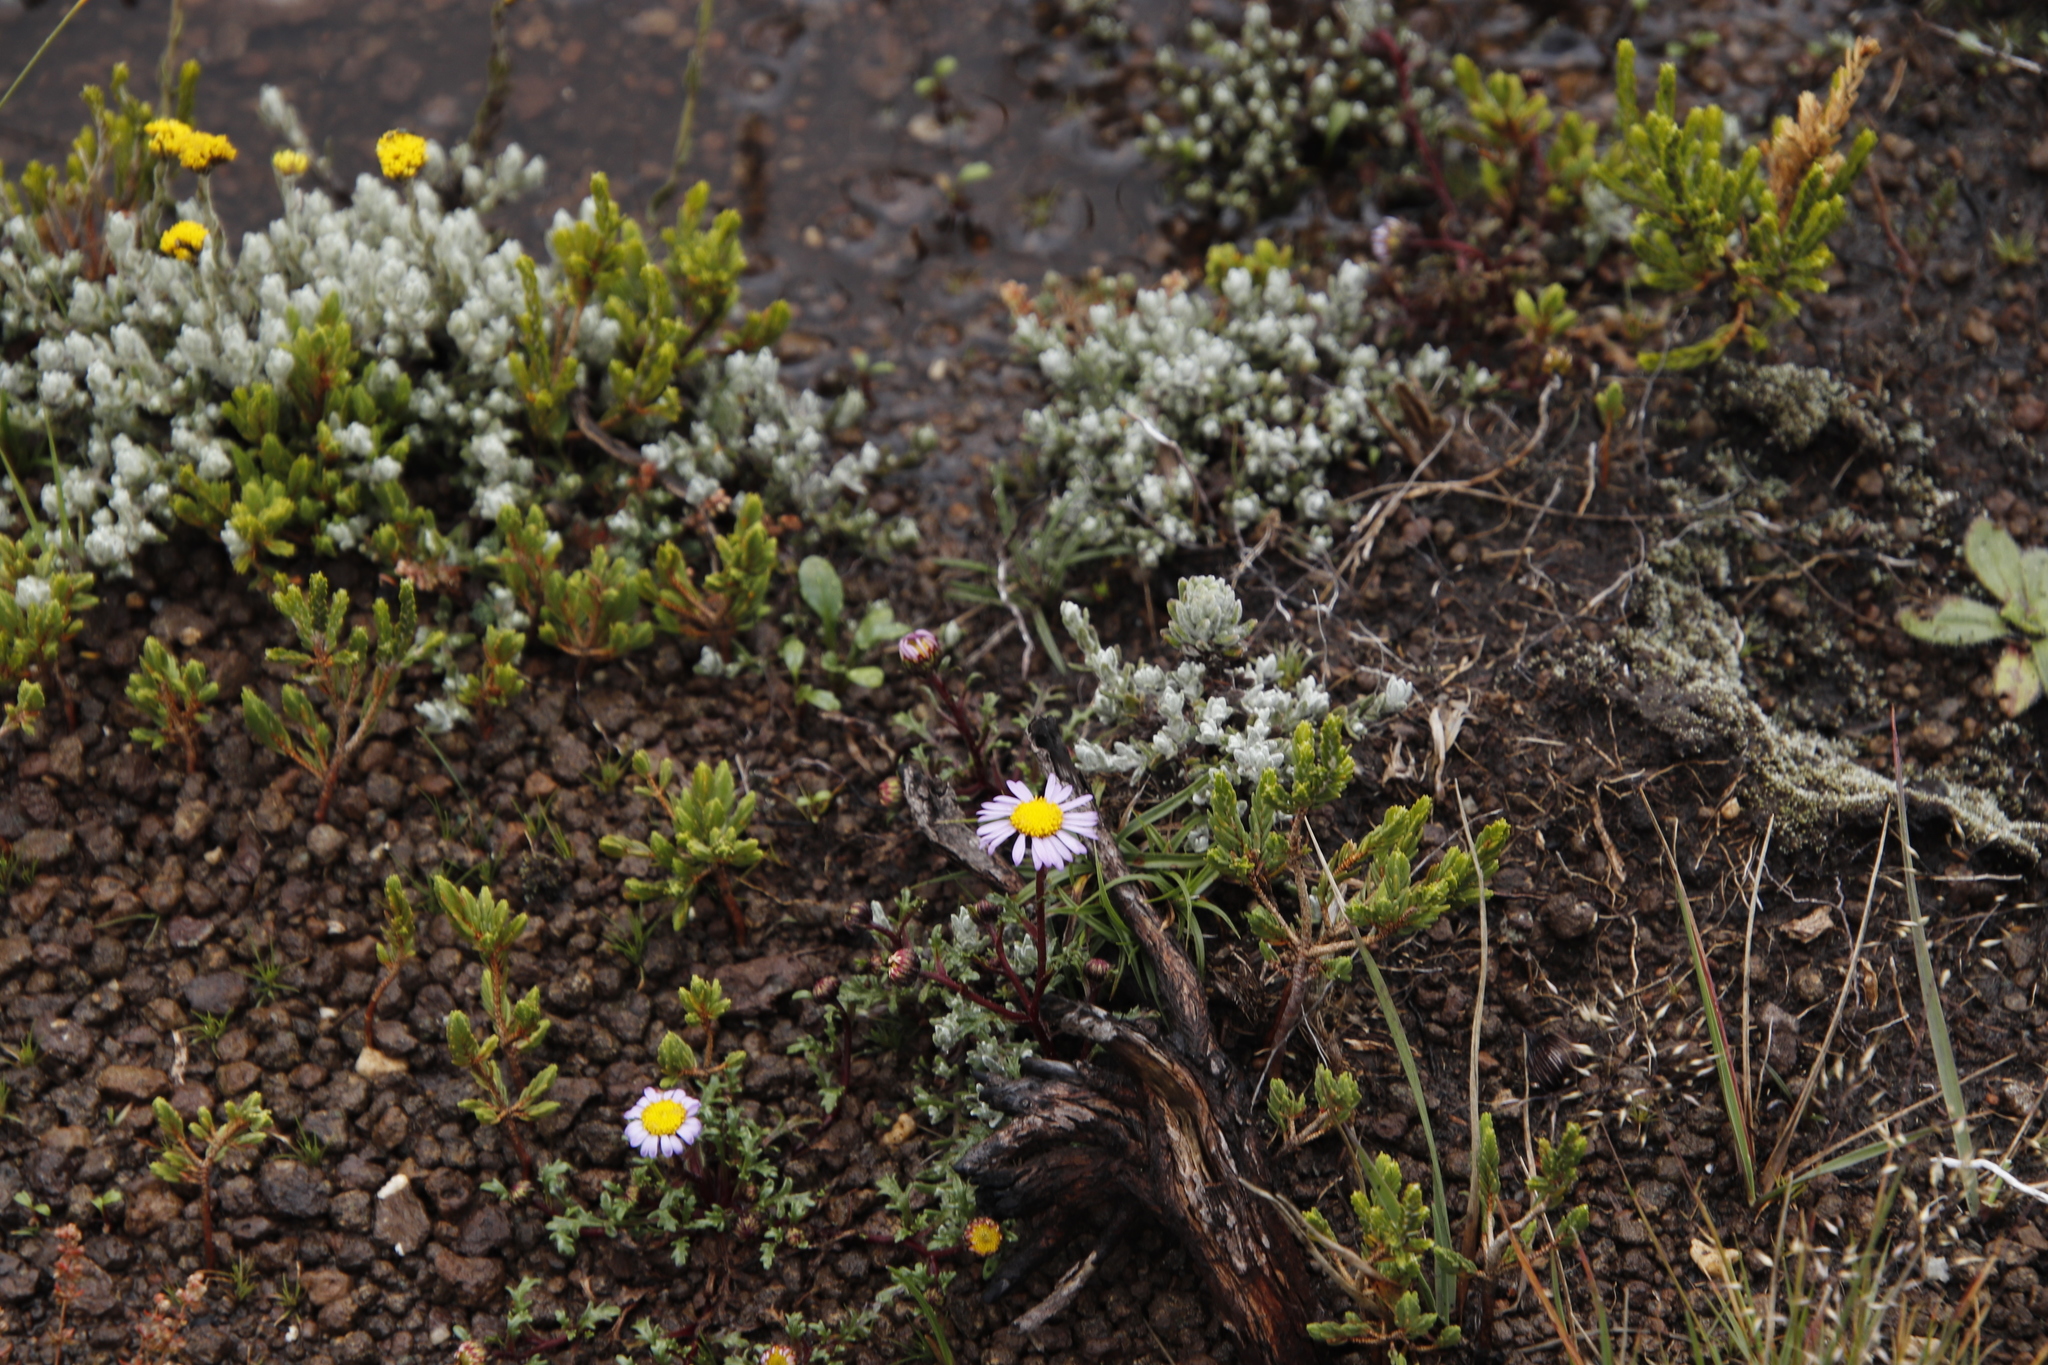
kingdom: Plantae
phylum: Tracheophyta
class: Magnoliopsida
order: Asterales
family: Asteraceae
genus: Afroaster
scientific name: Afroaster erucifolius
